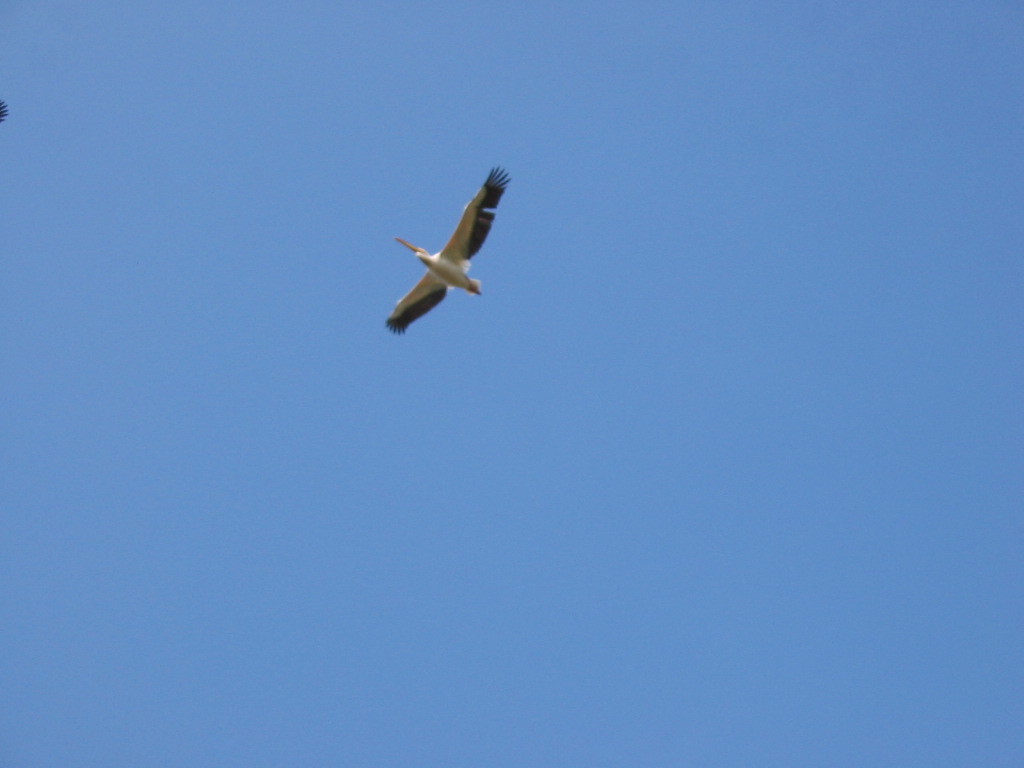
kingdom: Animalia
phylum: Chordata
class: Aves
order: Pelecaniformes
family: Pelecanidae
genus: Pelecanus
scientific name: Pelecanus onocrotalus
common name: Great white pelican
